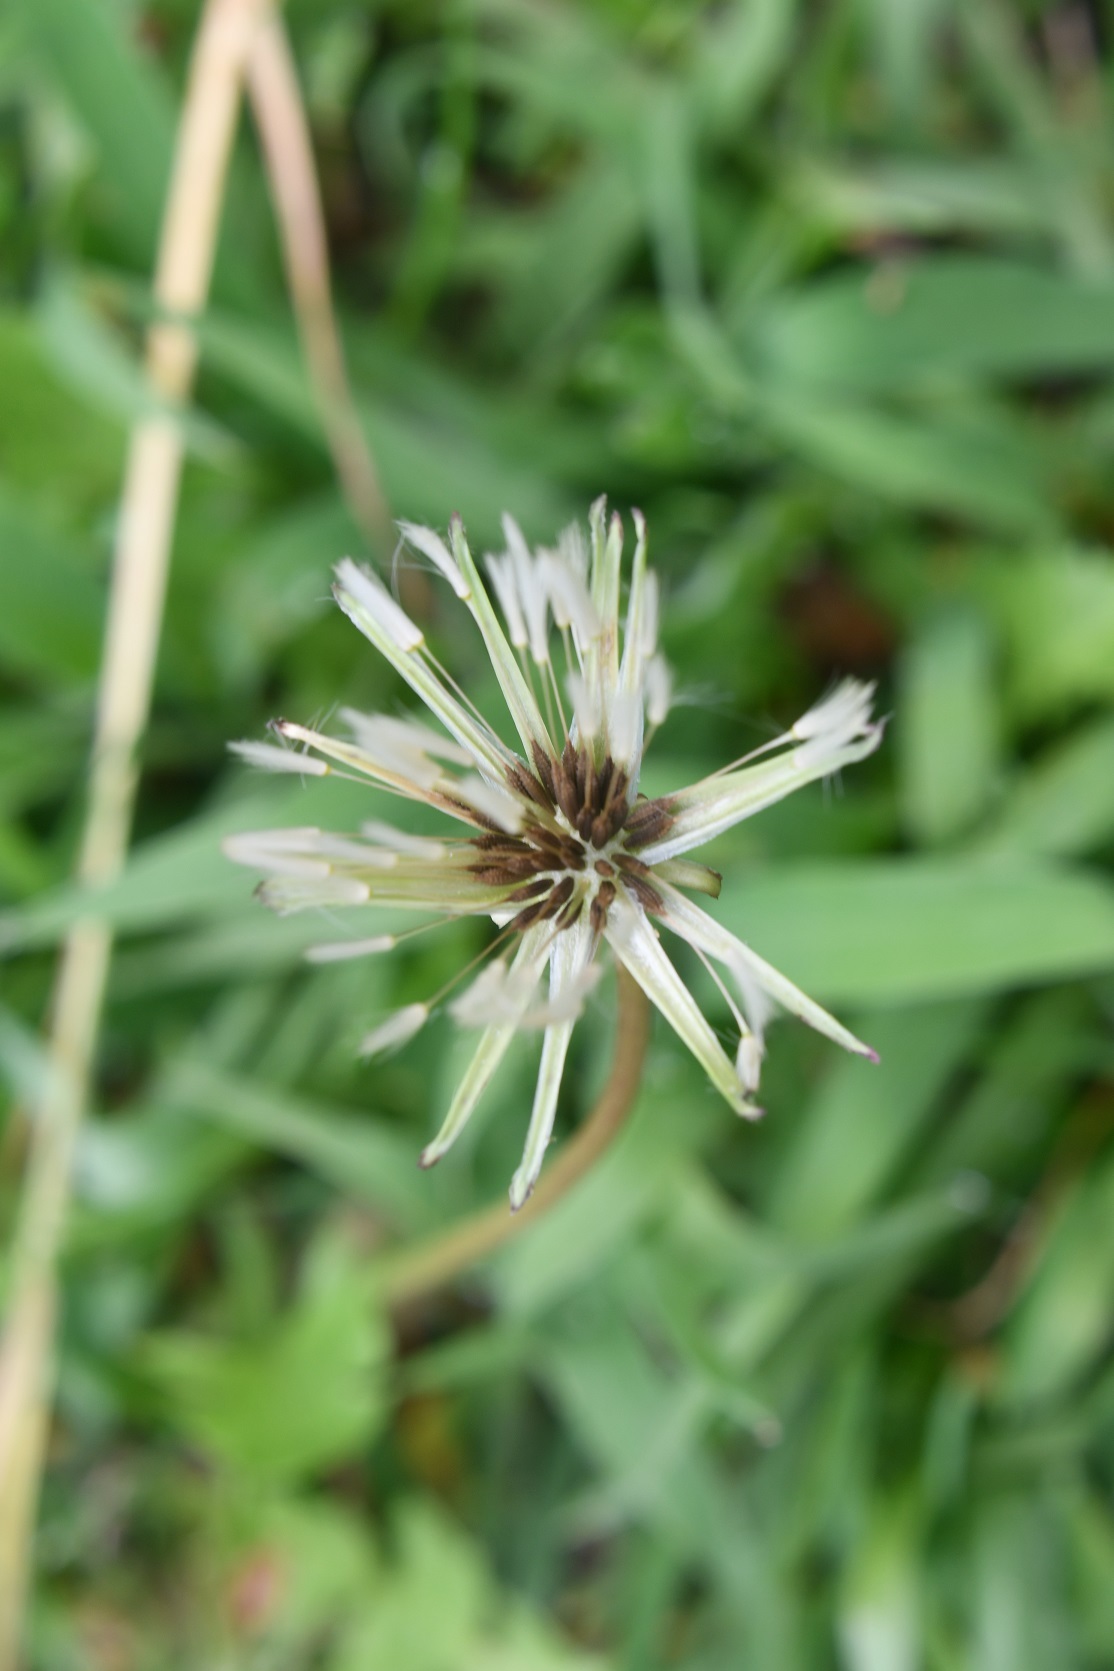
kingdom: Plantae
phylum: Tracheophyta
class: Magnoliopsida
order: Asterales
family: Asteraceae
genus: Taraxacum
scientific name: Taraxacum officinale
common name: Common dandelion
